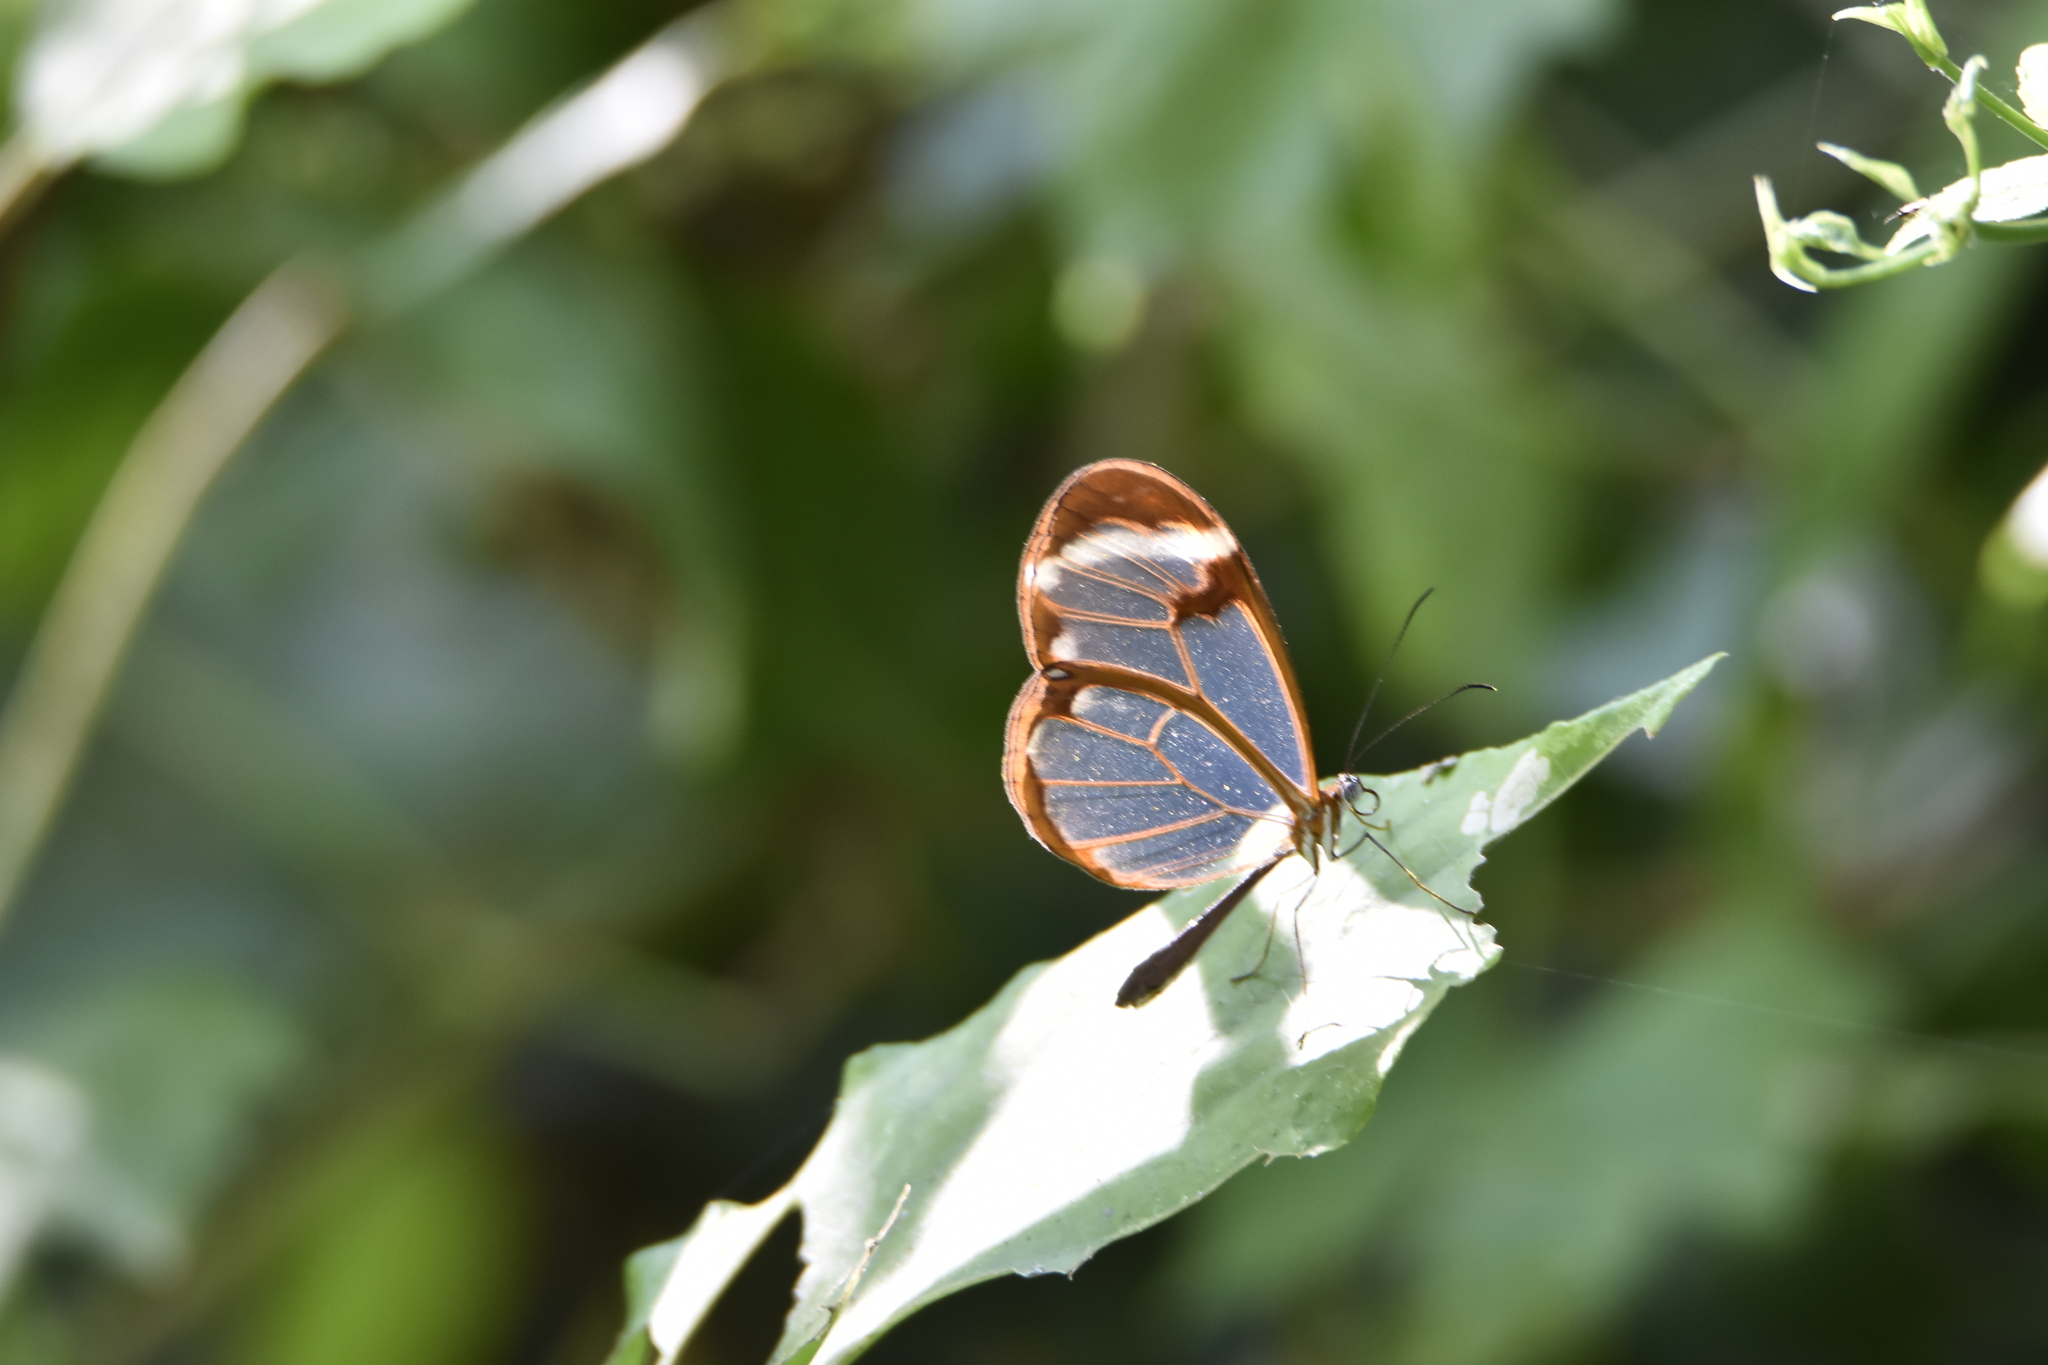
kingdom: Animalia
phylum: Arthropoda
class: Insecta
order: Lepidoptera
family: Nymphalidae
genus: Greta
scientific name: Greta morgane
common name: Thick-tipped greta
